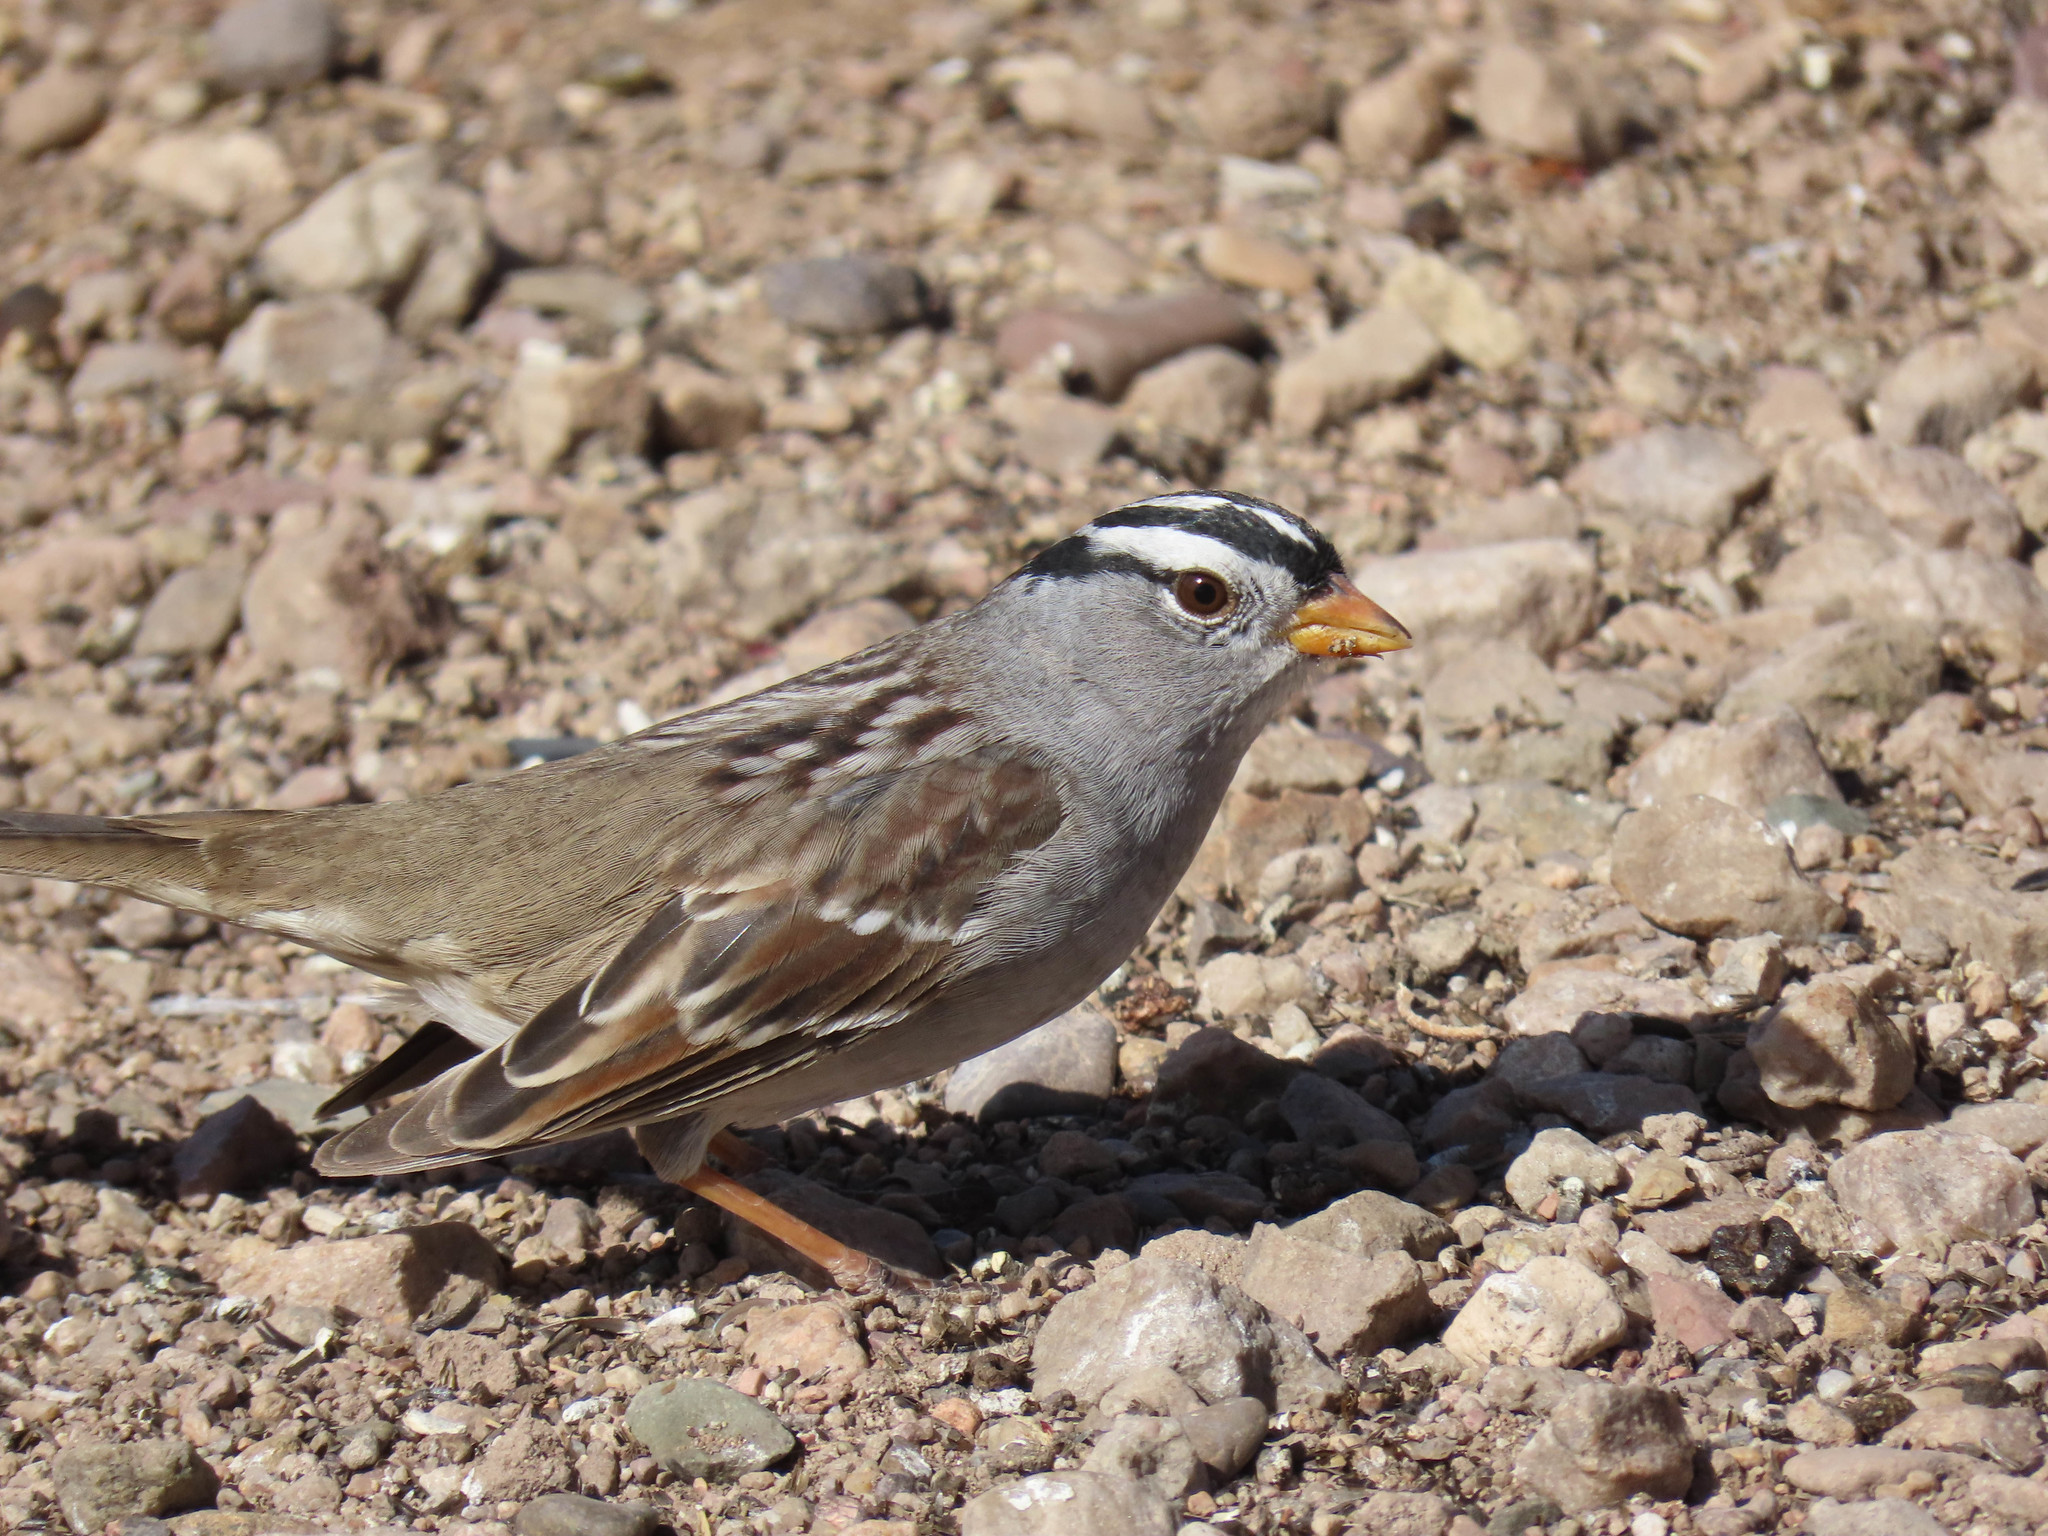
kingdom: Animalia
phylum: Chordata
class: Aves
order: Passeriformes
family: Passerellidae
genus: Zonotrichia
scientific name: Zonotrichia leucophrys
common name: White-crowned sparrow
